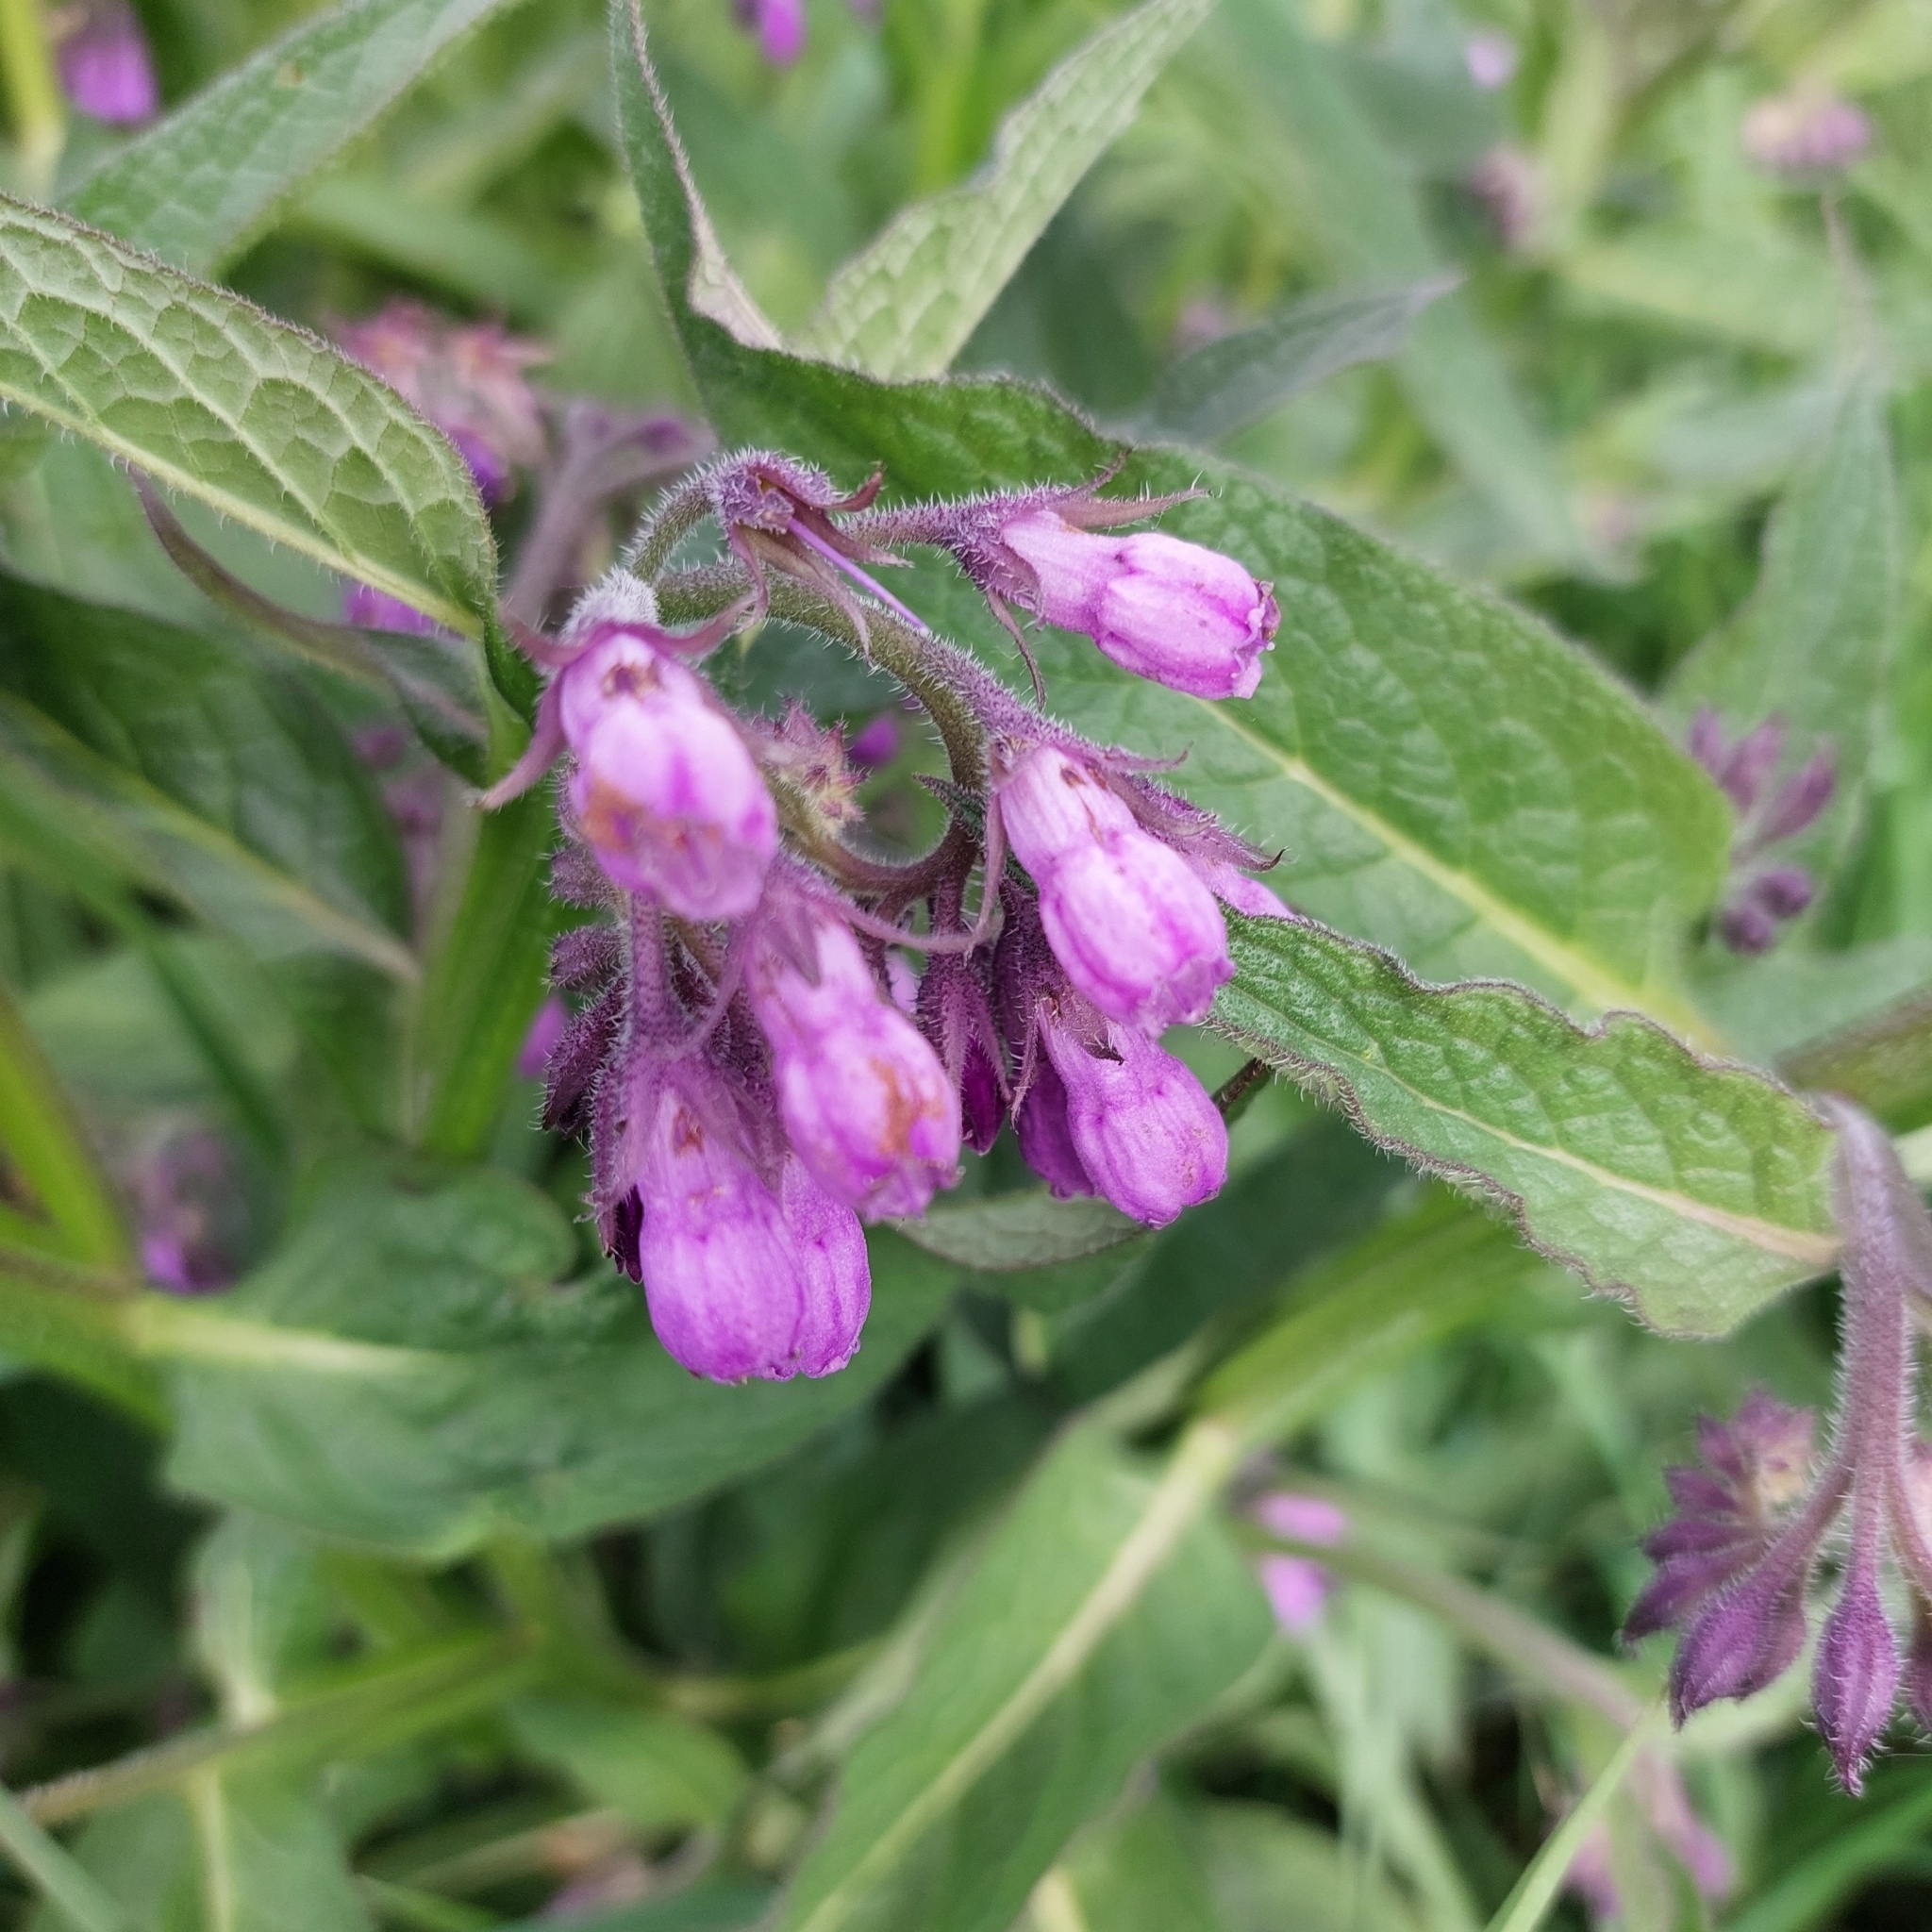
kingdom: Plantae
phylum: Tracheophyta
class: Magnoliopsida
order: Boraginales
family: Boraginaceae
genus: Symphytum
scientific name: Symphytum officinale
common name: Common comfrey
